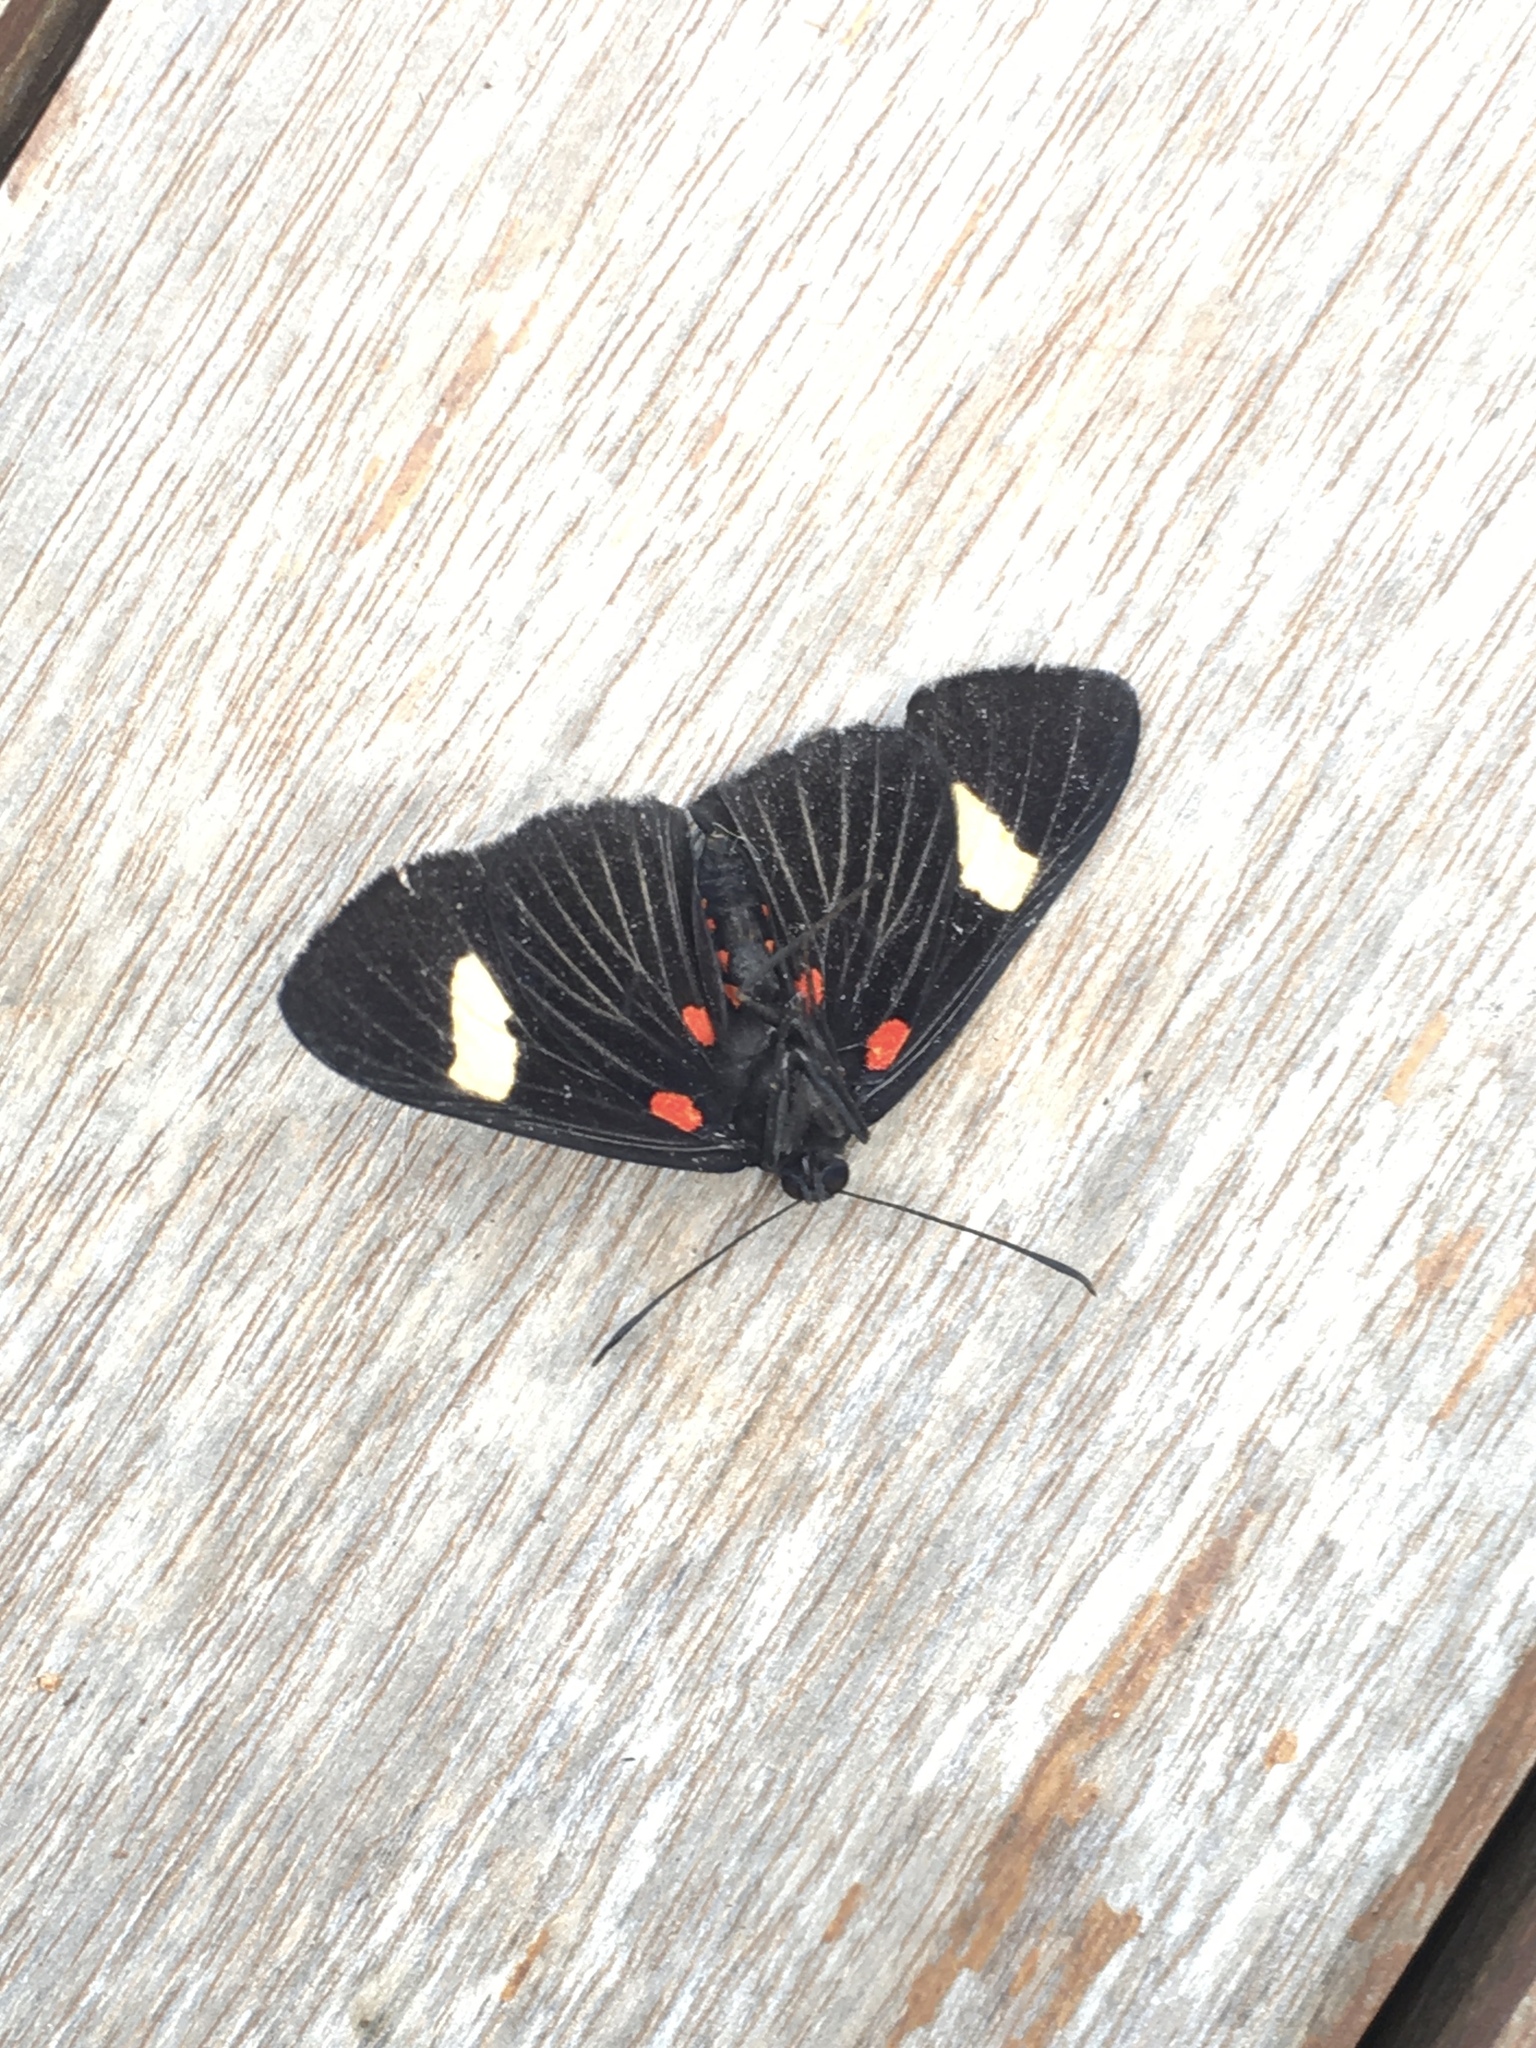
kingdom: Animalia
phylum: Arthropoda
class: Insecta
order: Lepidoptera
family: Lycaenidae
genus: Melanis
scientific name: Melanis aegates
